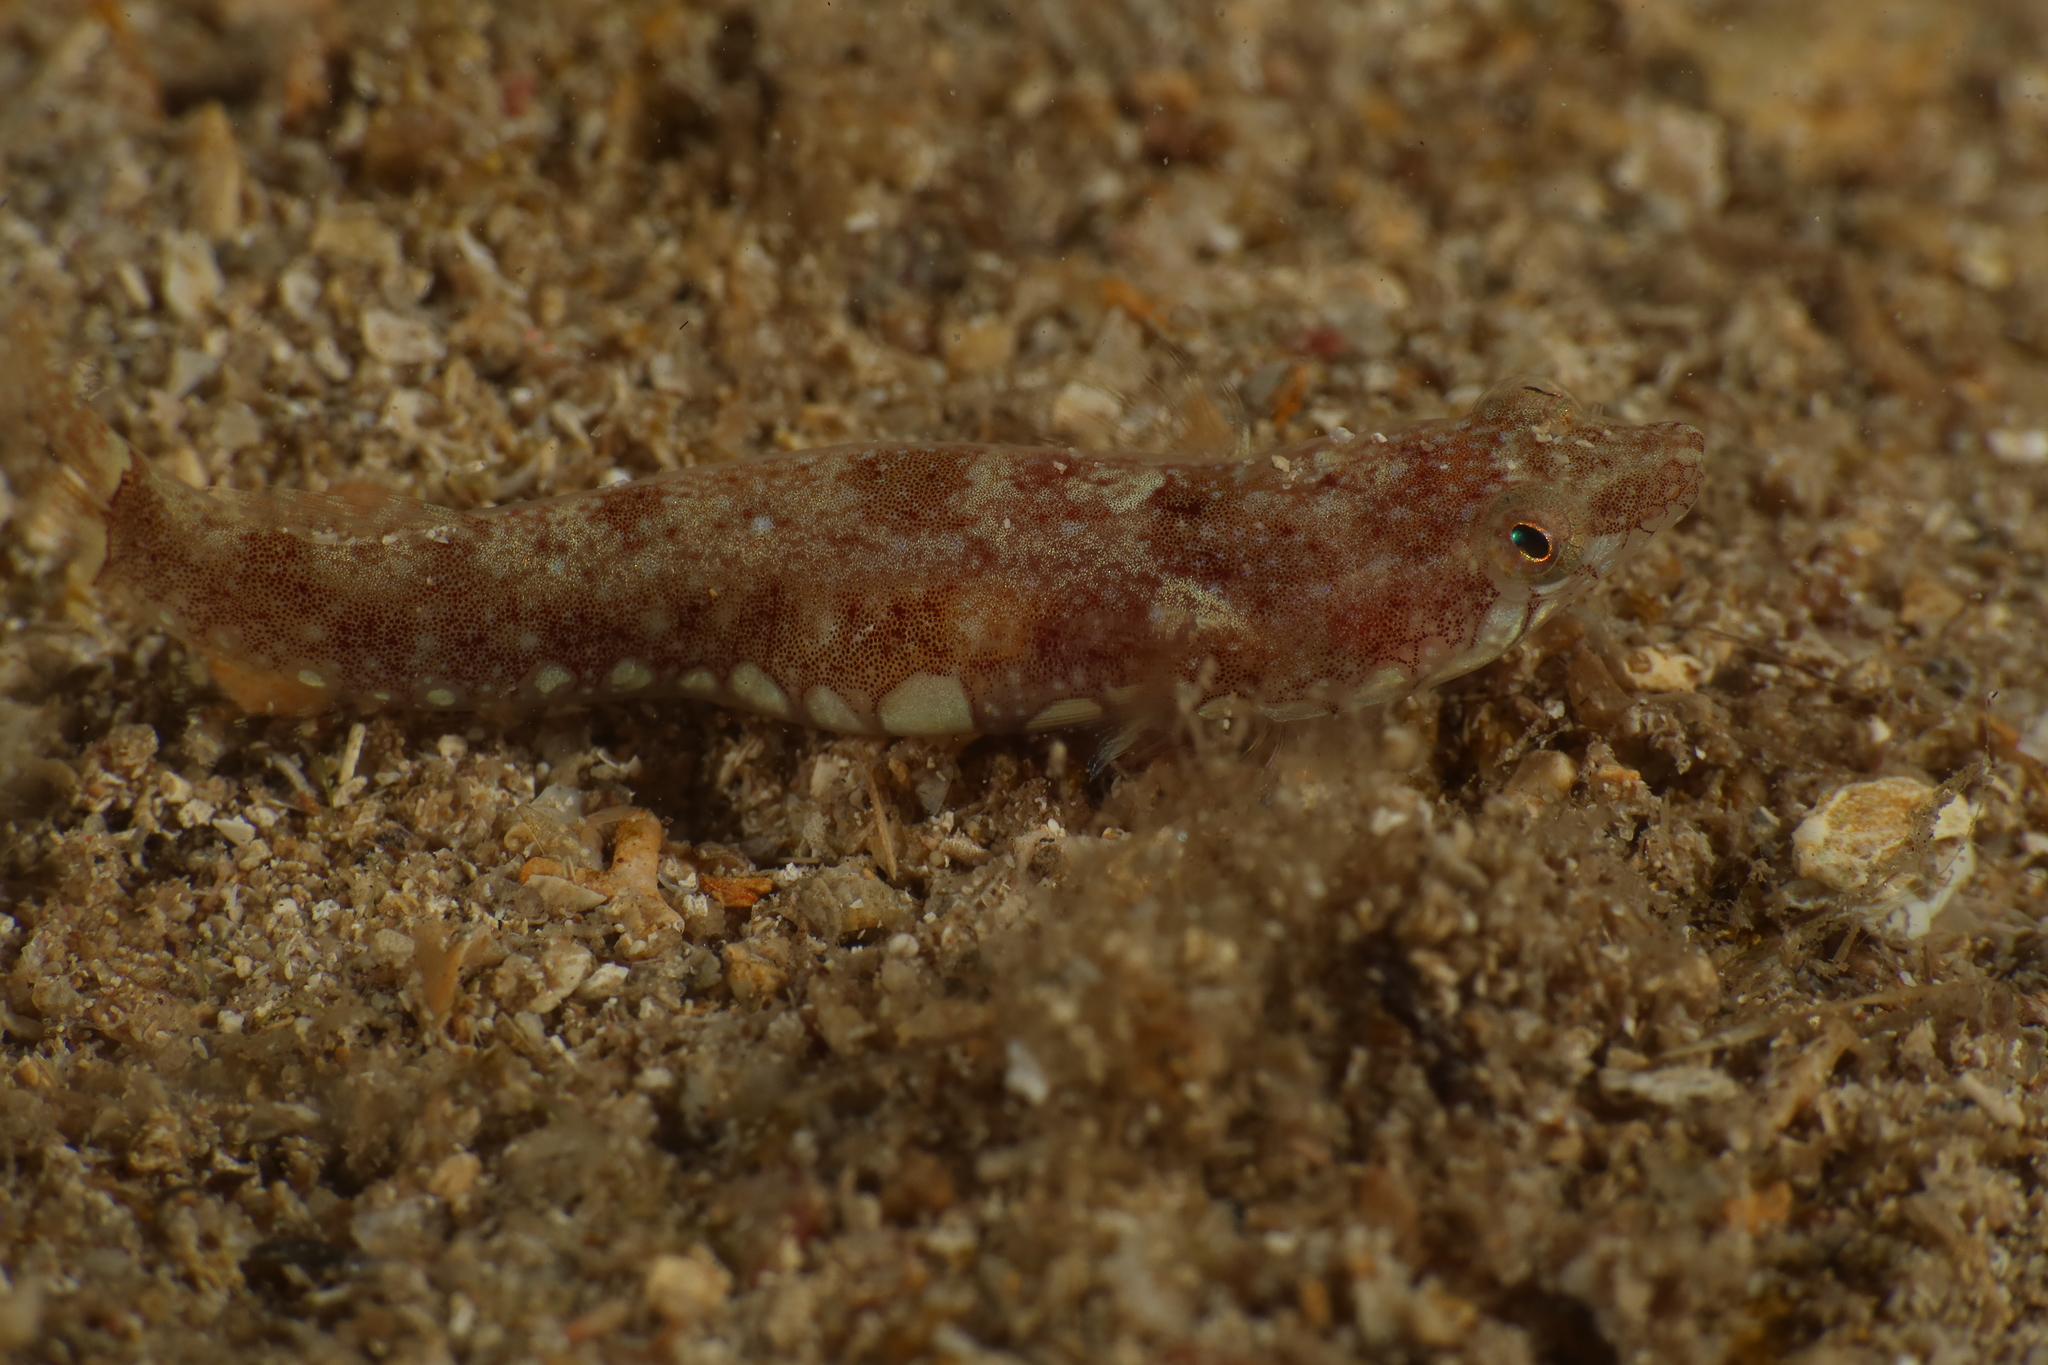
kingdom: Animalia
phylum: Chordata
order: Gobiesociformes
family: Gobiesocidae
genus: Diplecogaster
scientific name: Diplecogaster bimaculata
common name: Two-spotted clingfish
